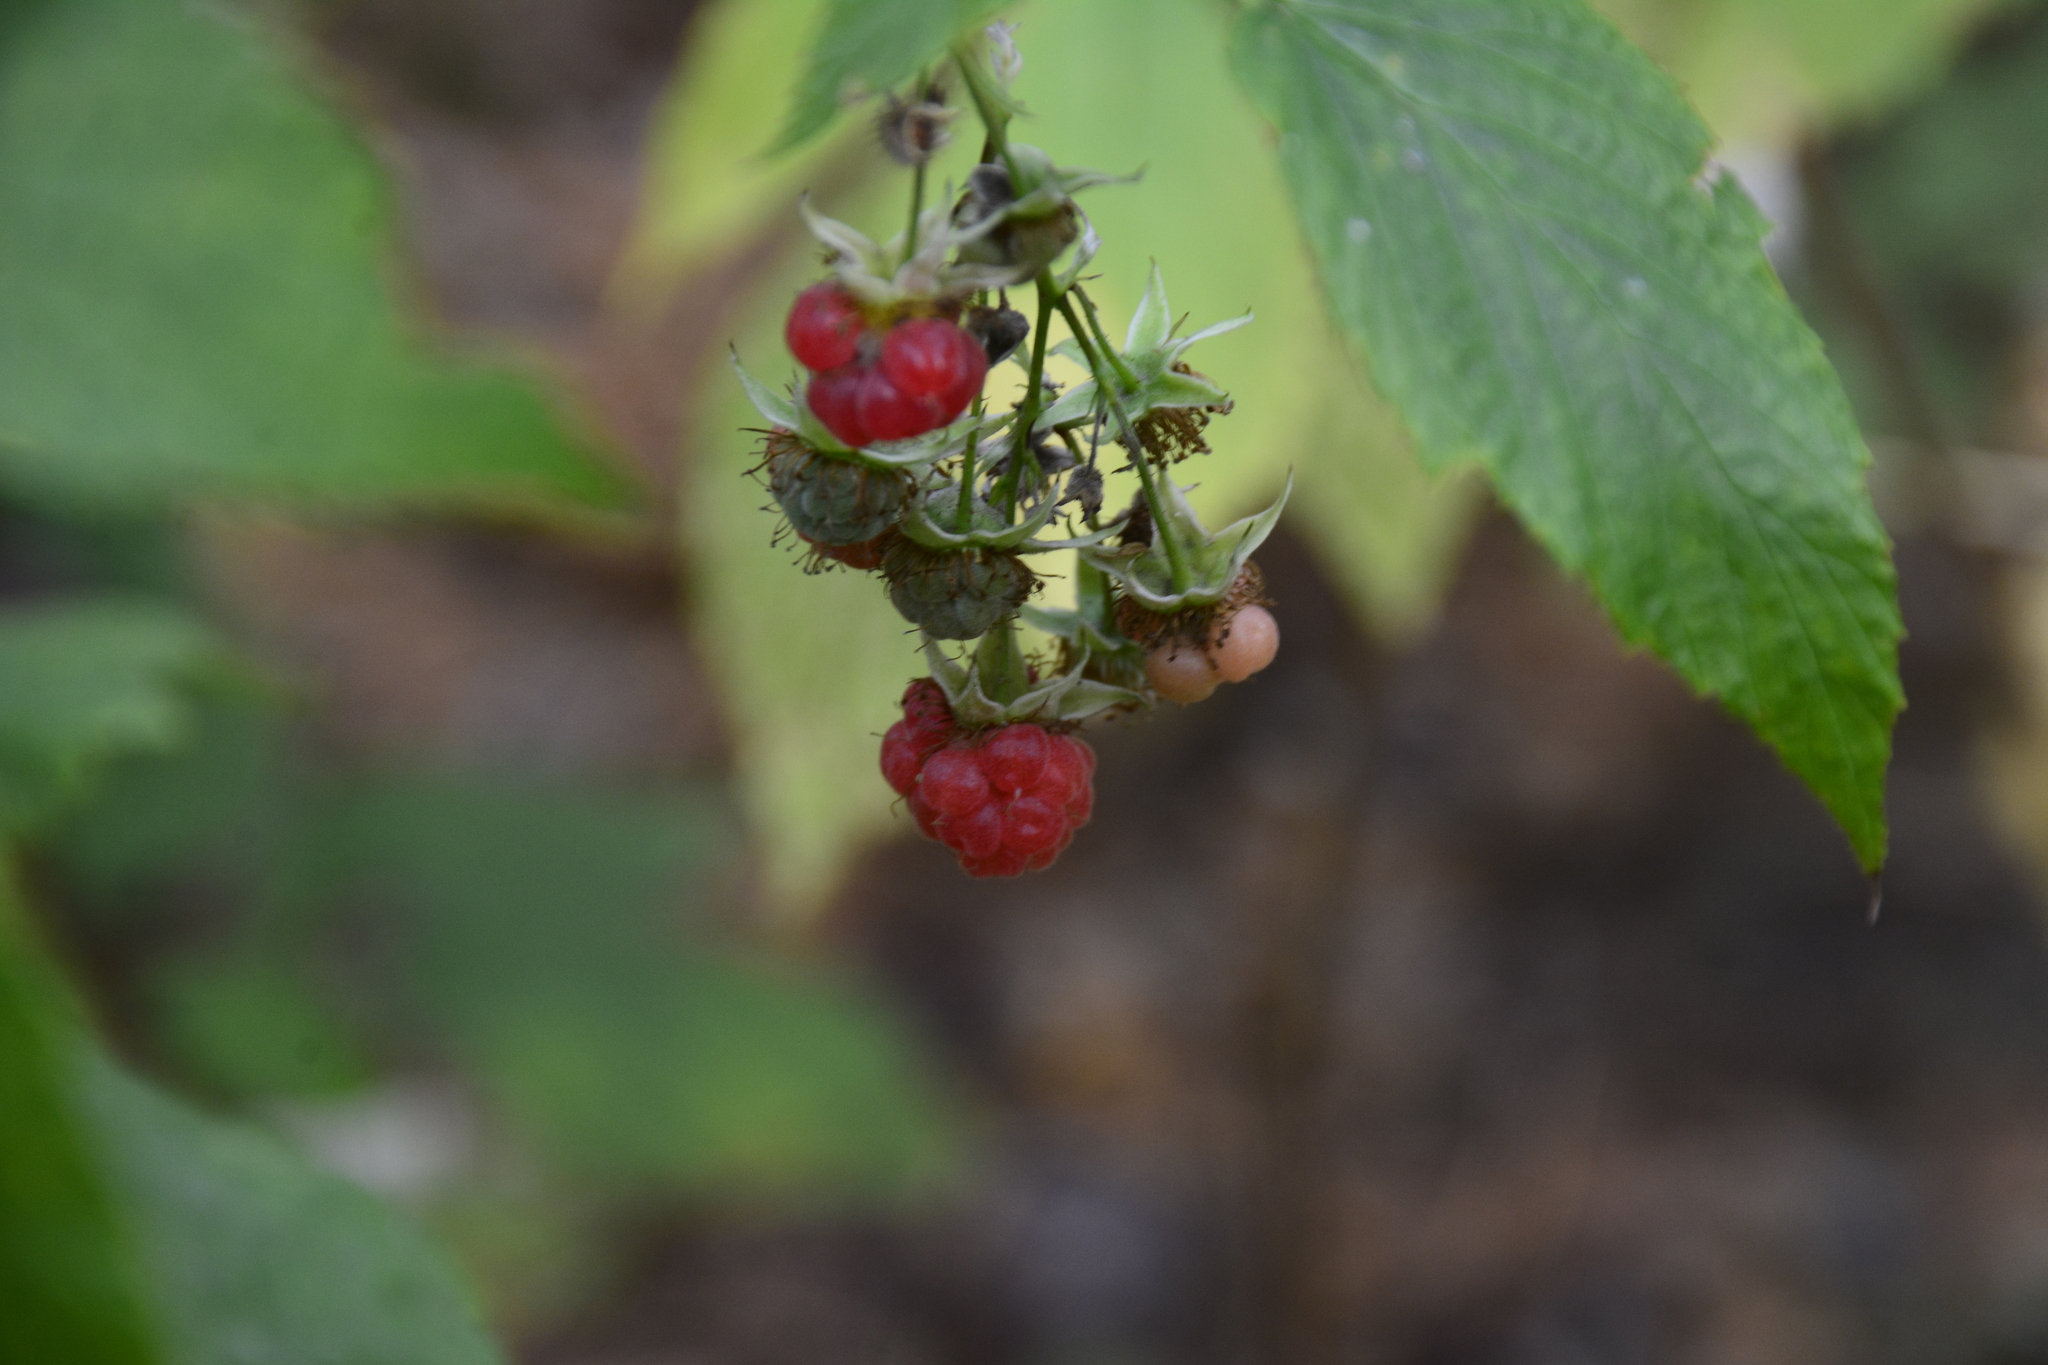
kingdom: Plantae
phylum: Tracheophyta
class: Magnoliopsida
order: Rosales
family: Rosaceae
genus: Rubus
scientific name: Rubus idaeus
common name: Raspberry
